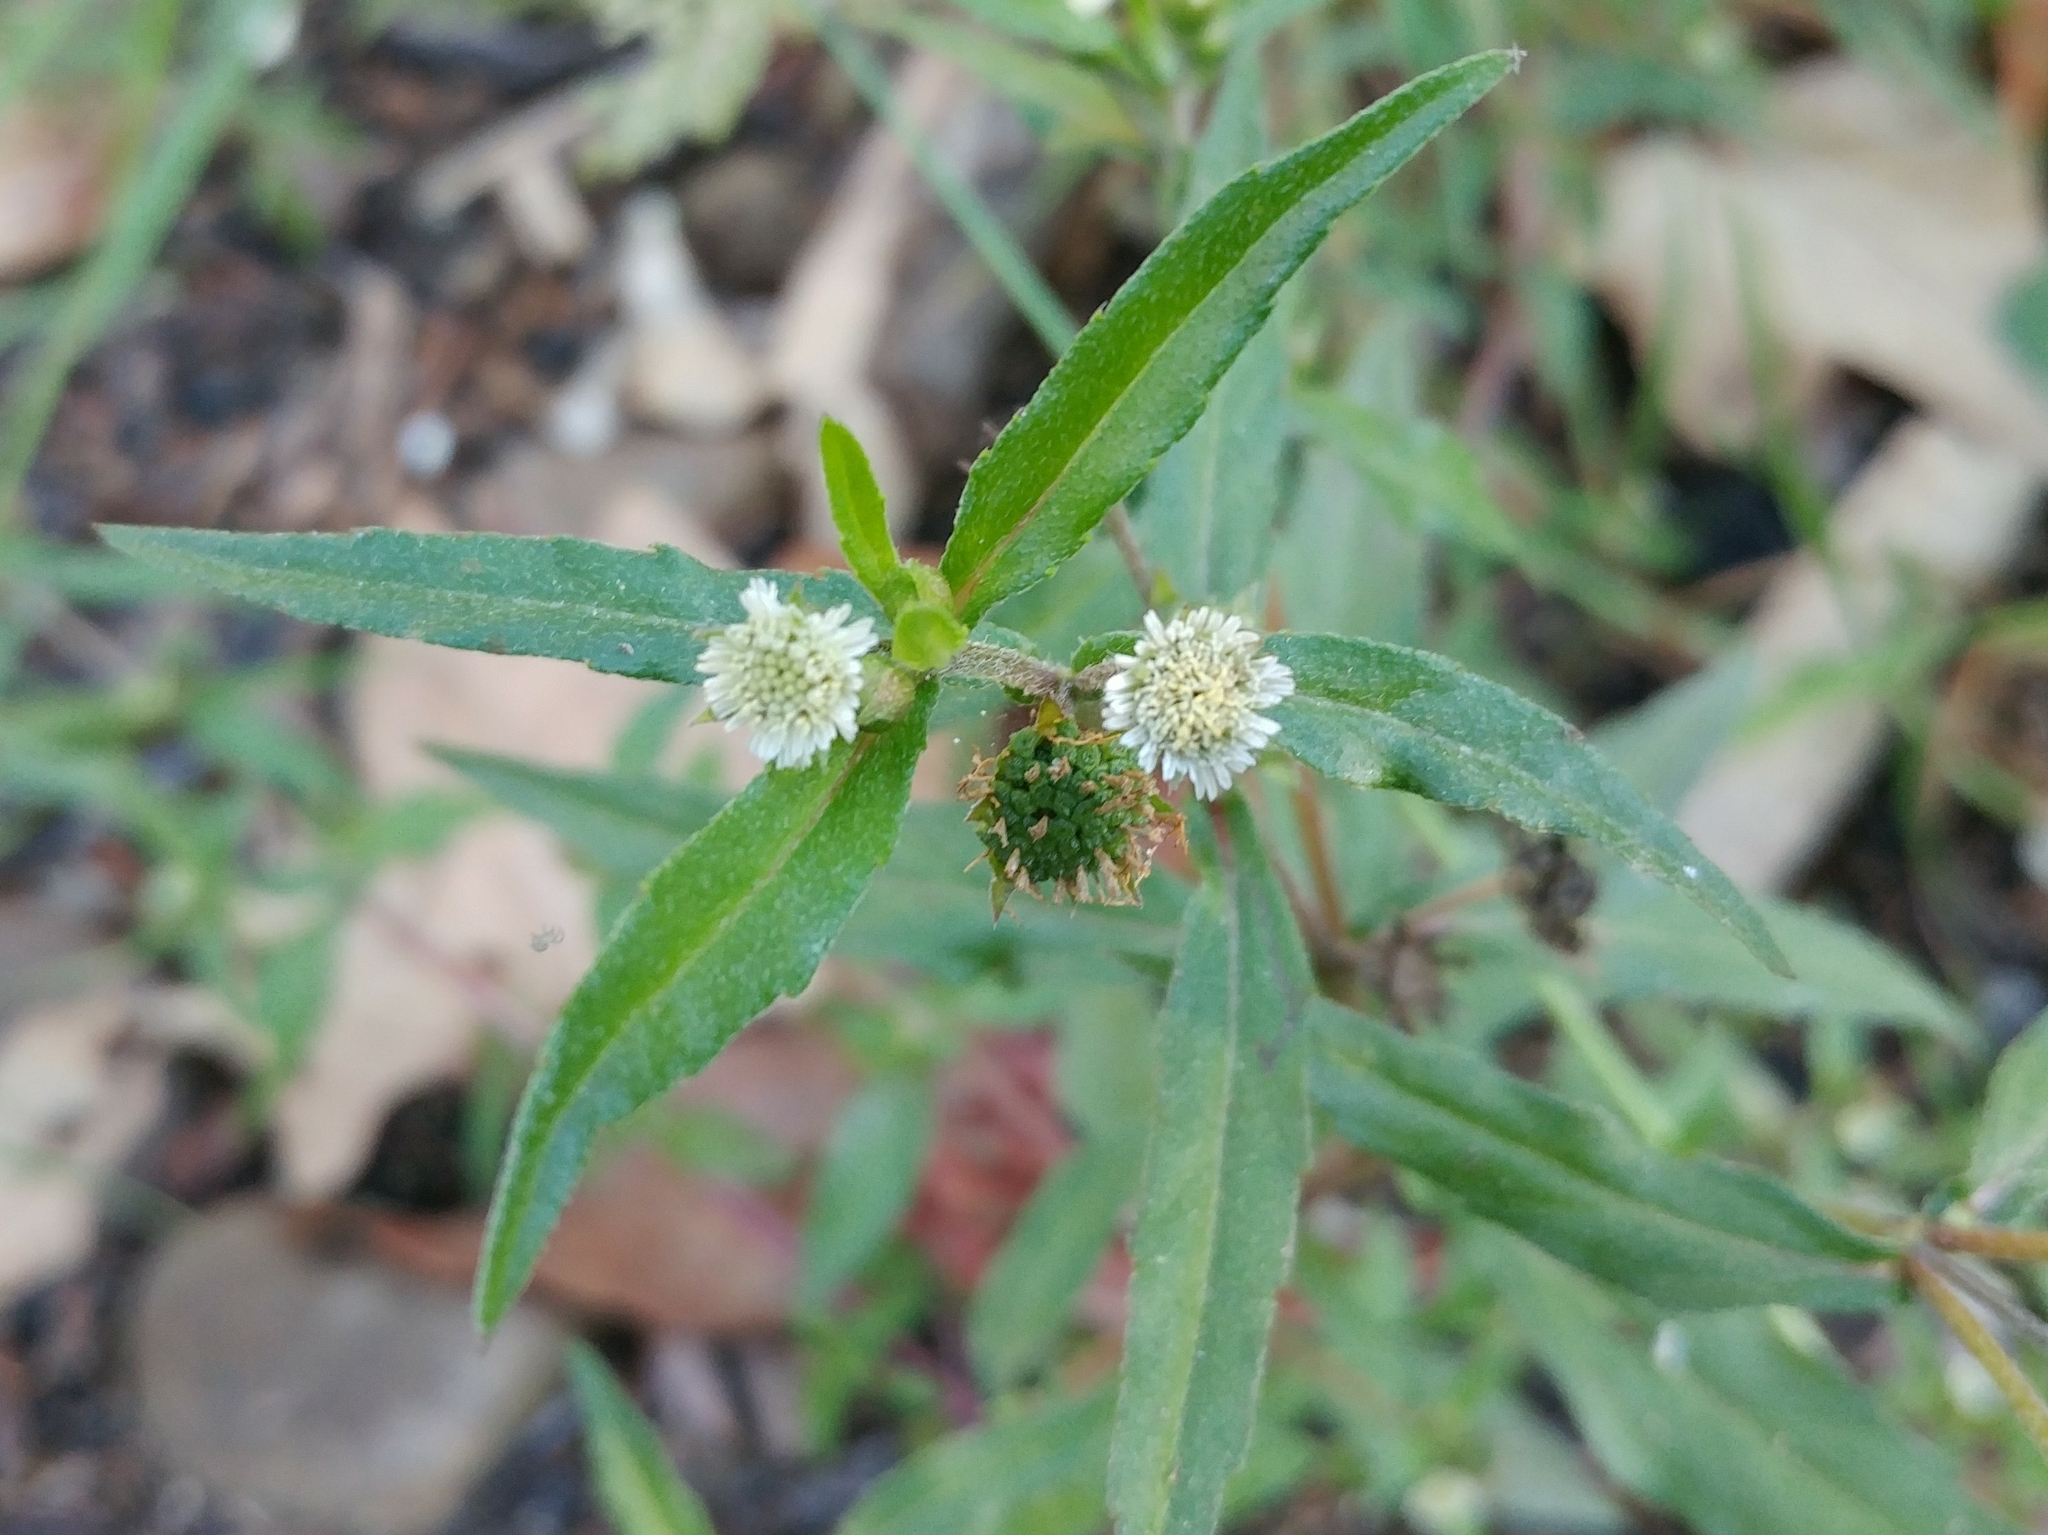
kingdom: Plantae
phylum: Tracheophyta
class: Magnoliopsida
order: Asterales
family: Asteraceae
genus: Eclipta
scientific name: Eclipta prostrata
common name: False daisy
